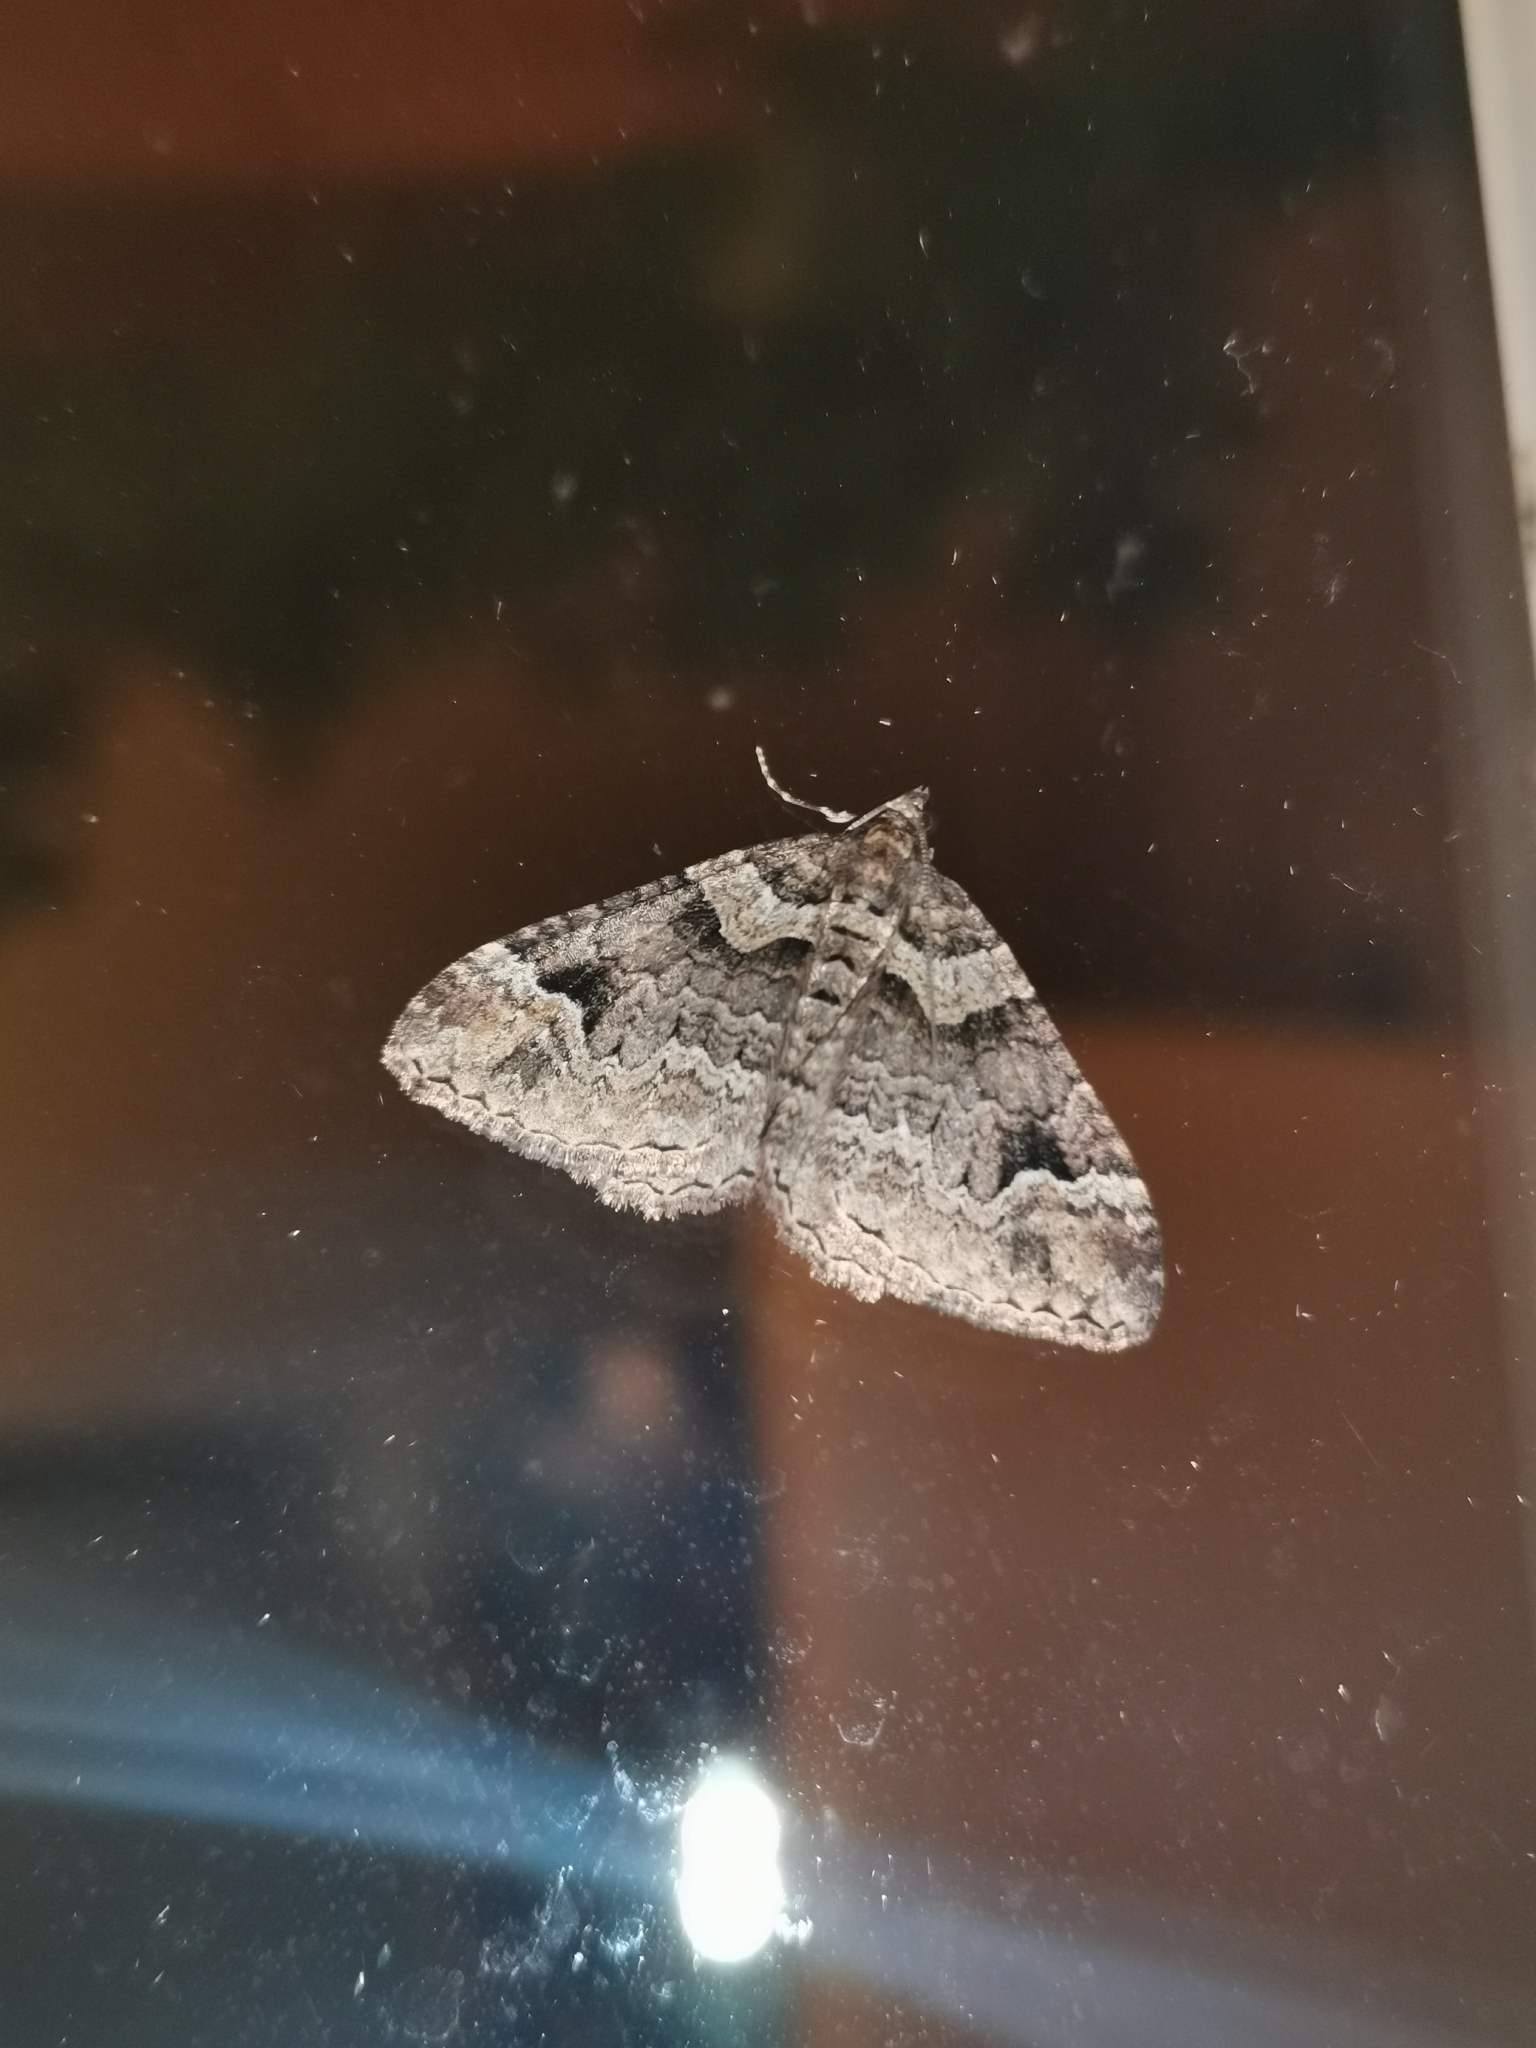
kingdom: Animalia
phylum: Arthropoda
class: Insecta
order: Lepidoptera
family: Geometridae
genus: Catarhoe
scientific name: Catarhoe basochesiata
